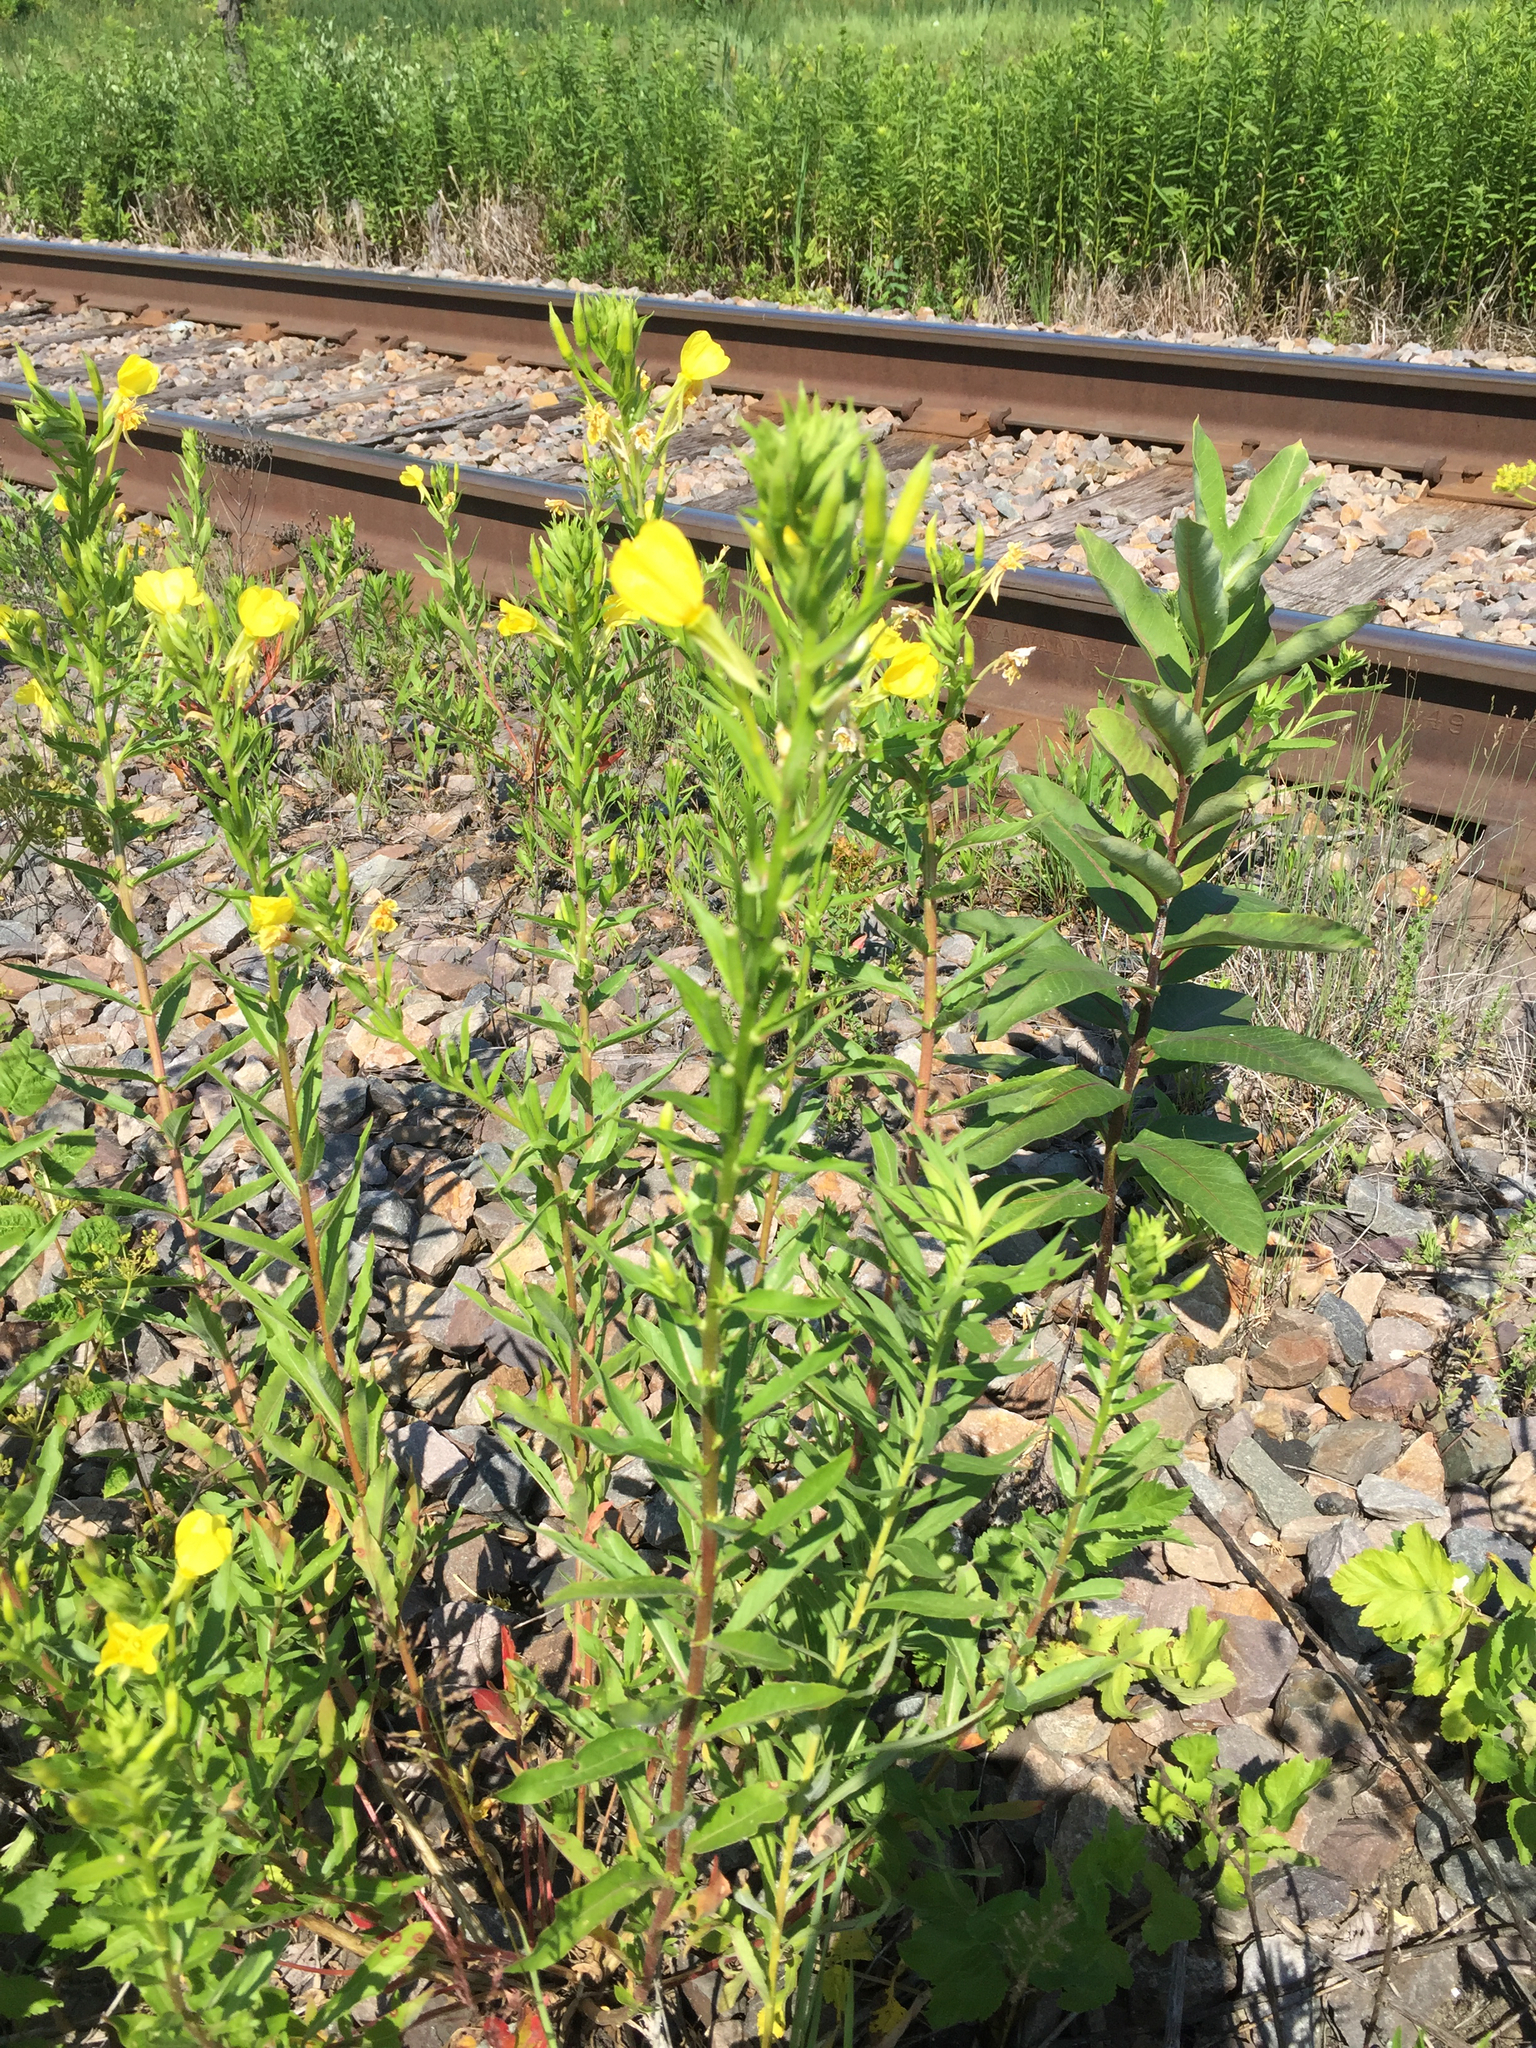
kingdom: Plantae
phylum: Tracheophyta
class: Magnoliopsida
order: Myrtales
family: Onagraceae
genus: Oenothera
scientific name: Oenothera biennis
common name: Common evening-primrose
